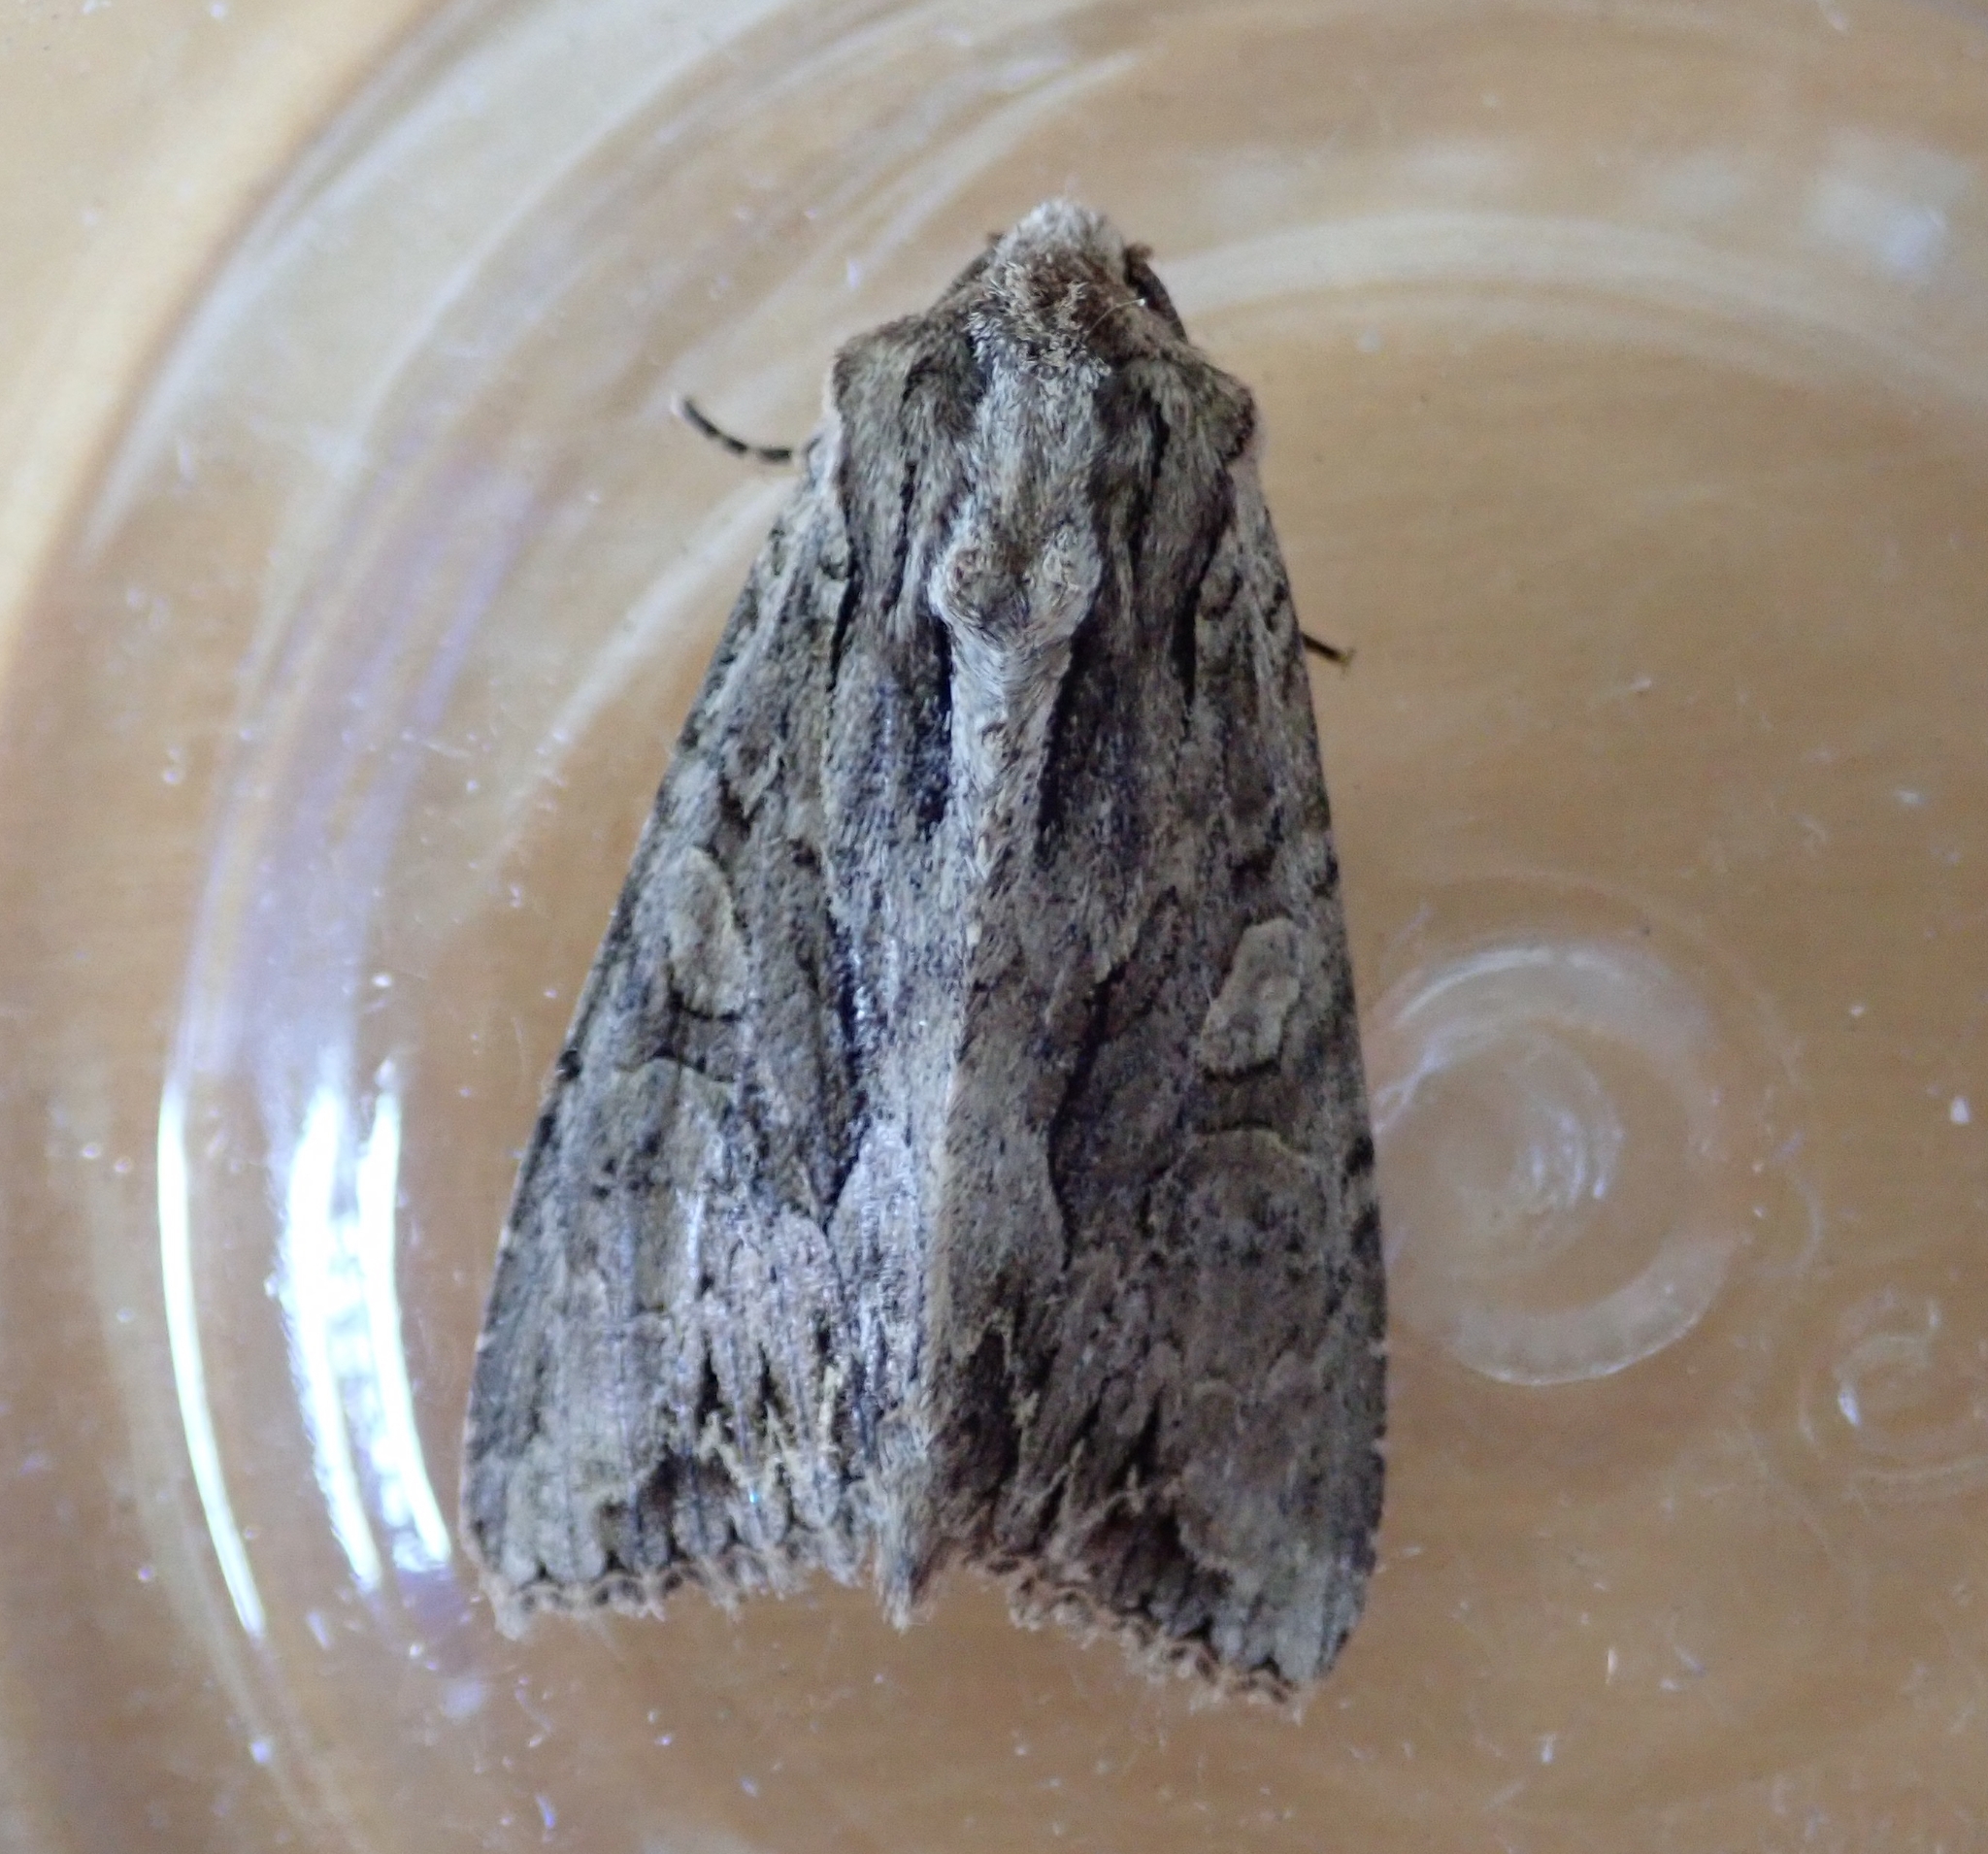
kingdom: Animalia
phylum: Arthropoda
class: Insecta
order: Lepidoptera
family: Noctuidae
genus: Apamea
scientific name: Apamea monoglypha
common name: Dark arches
